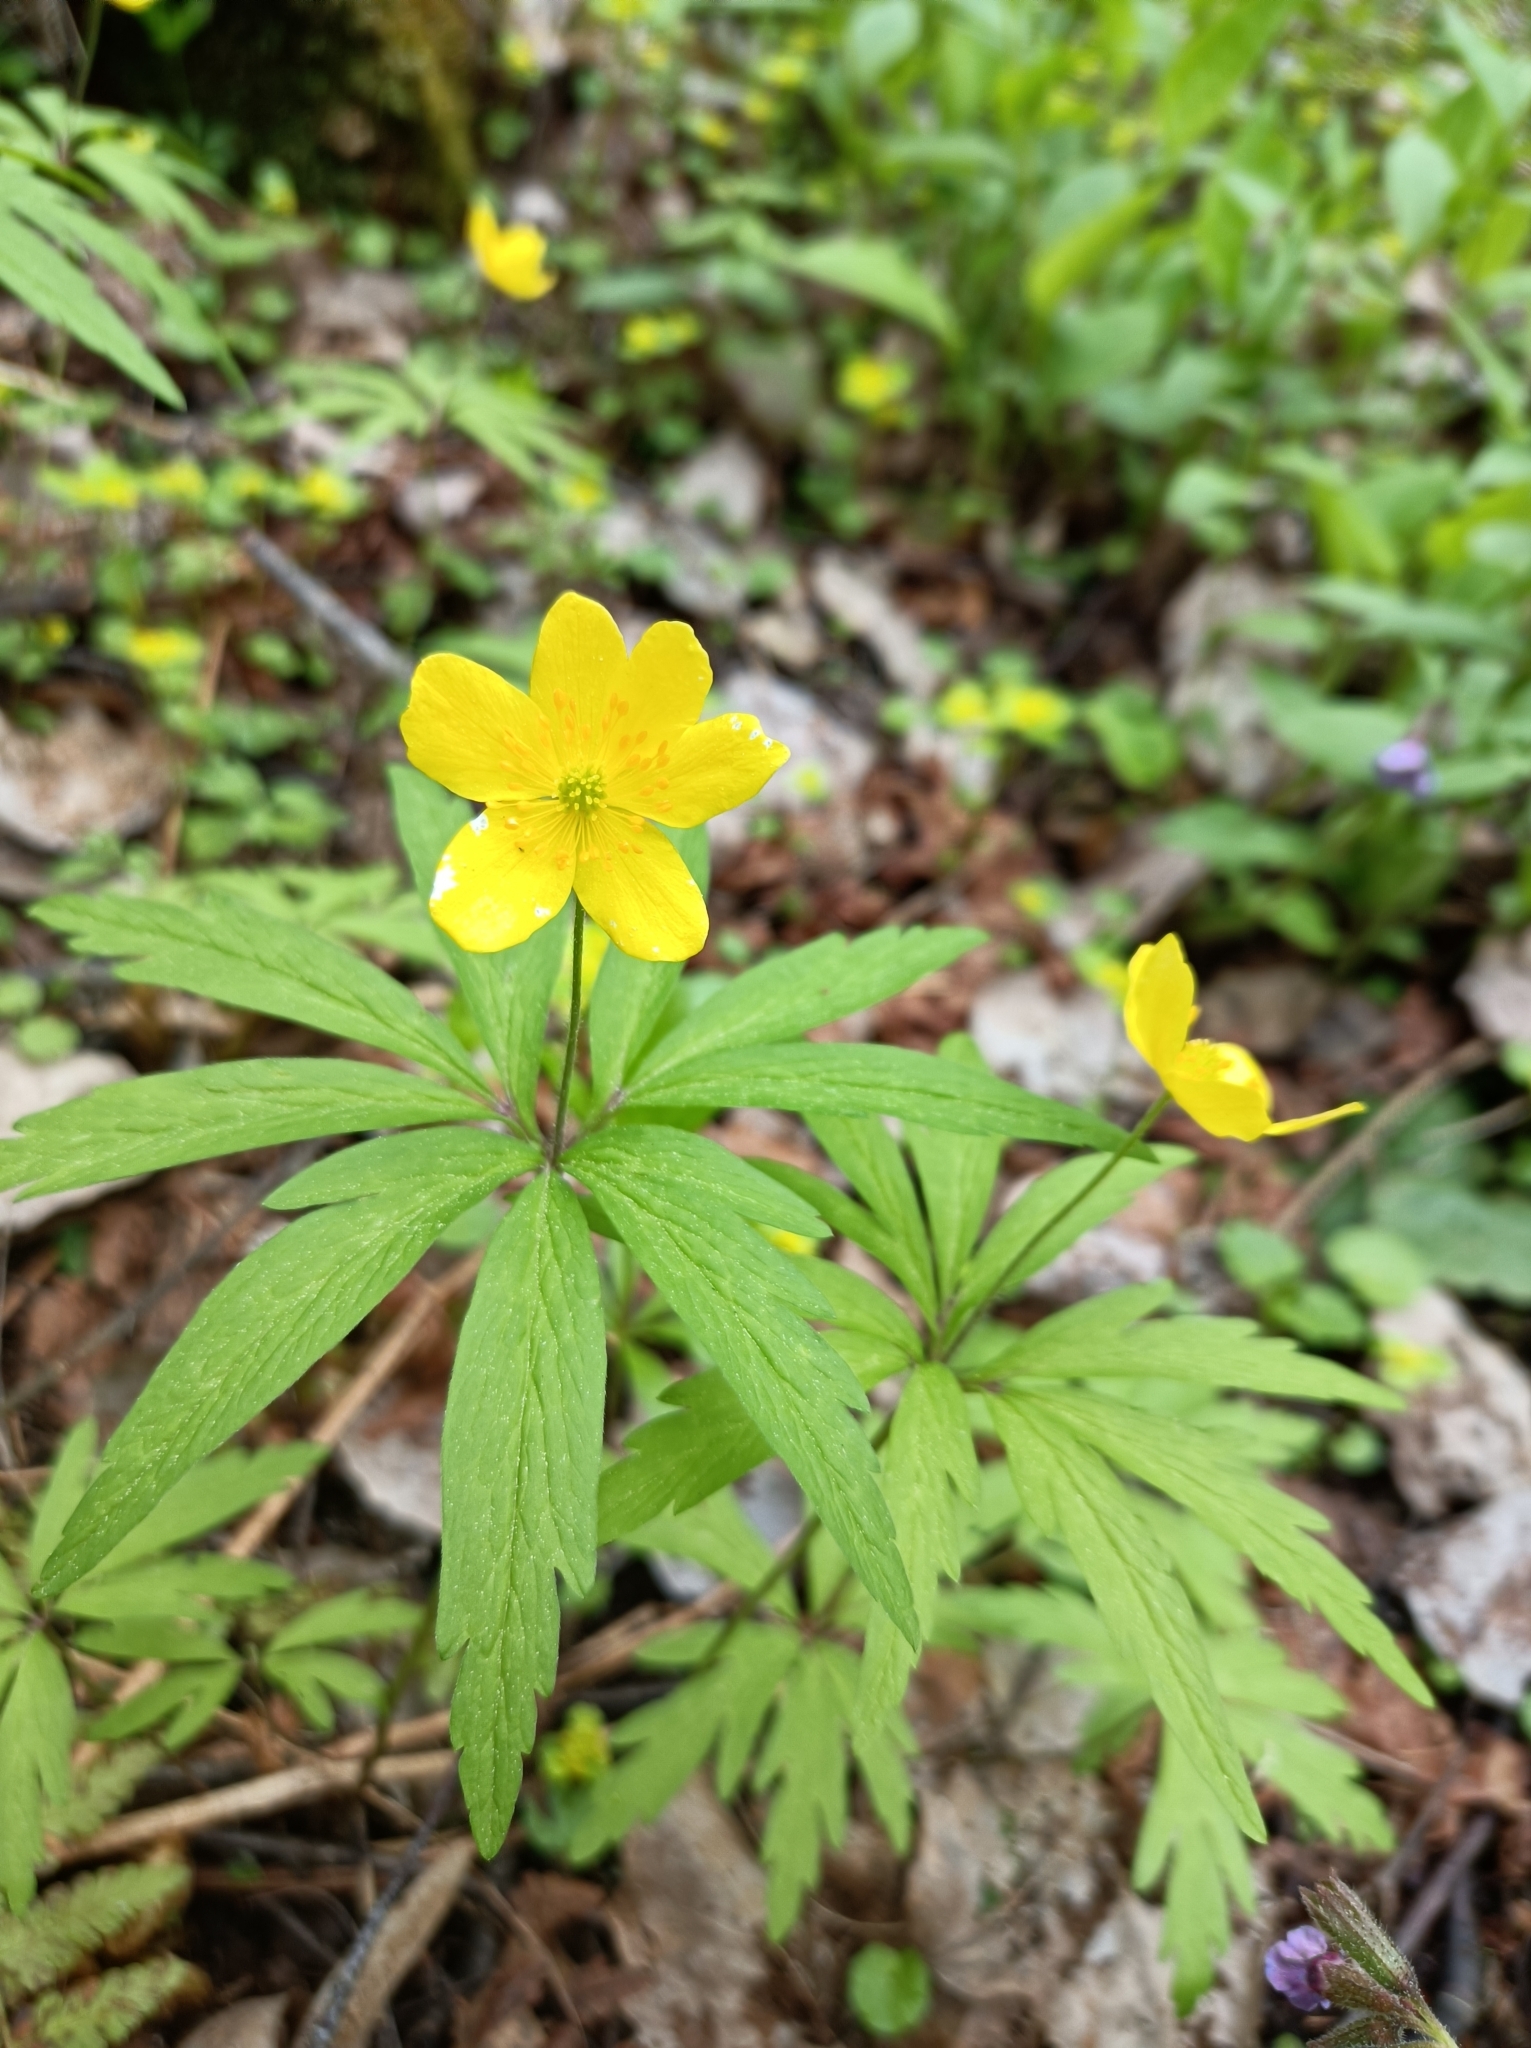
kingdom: Plantae
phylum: Tracheophyta
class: Magnoliopsida
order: Ranunculales
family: Ranunculaceae
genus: Anemone
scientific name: Anemone ranunculoides
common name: Yellow anemone
